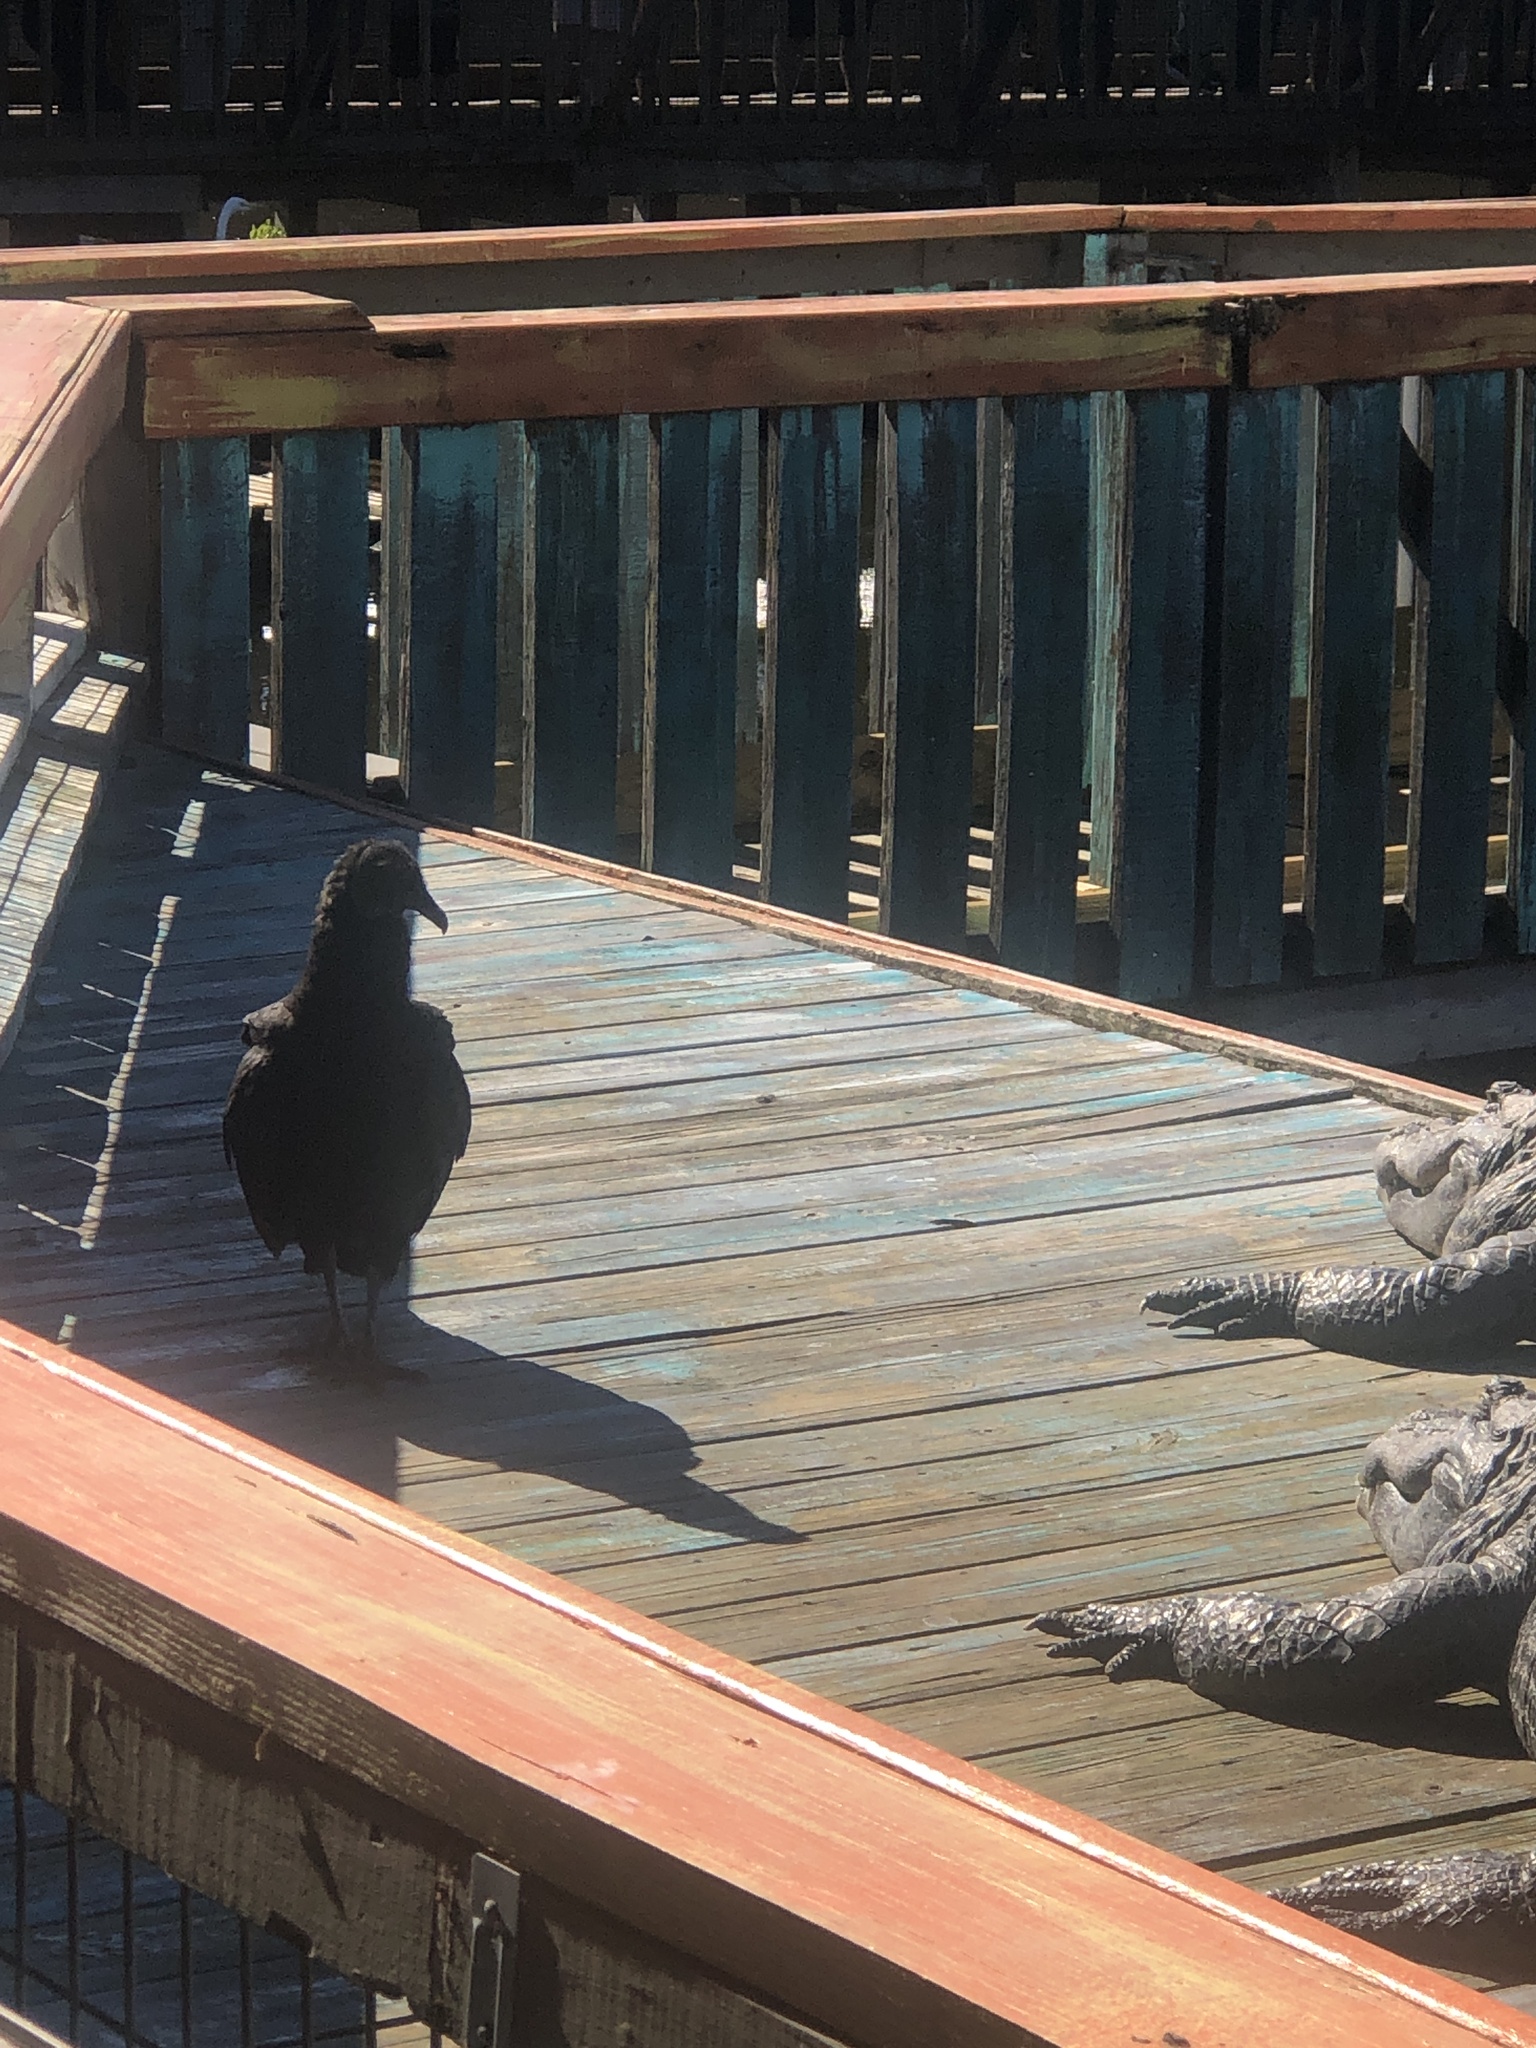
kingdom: Animalia
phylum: Chordata
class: Aves
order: Accipitriformes
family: Cathartidae
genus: Coragyps
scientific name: Coragyps atratus
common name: Black vulture
